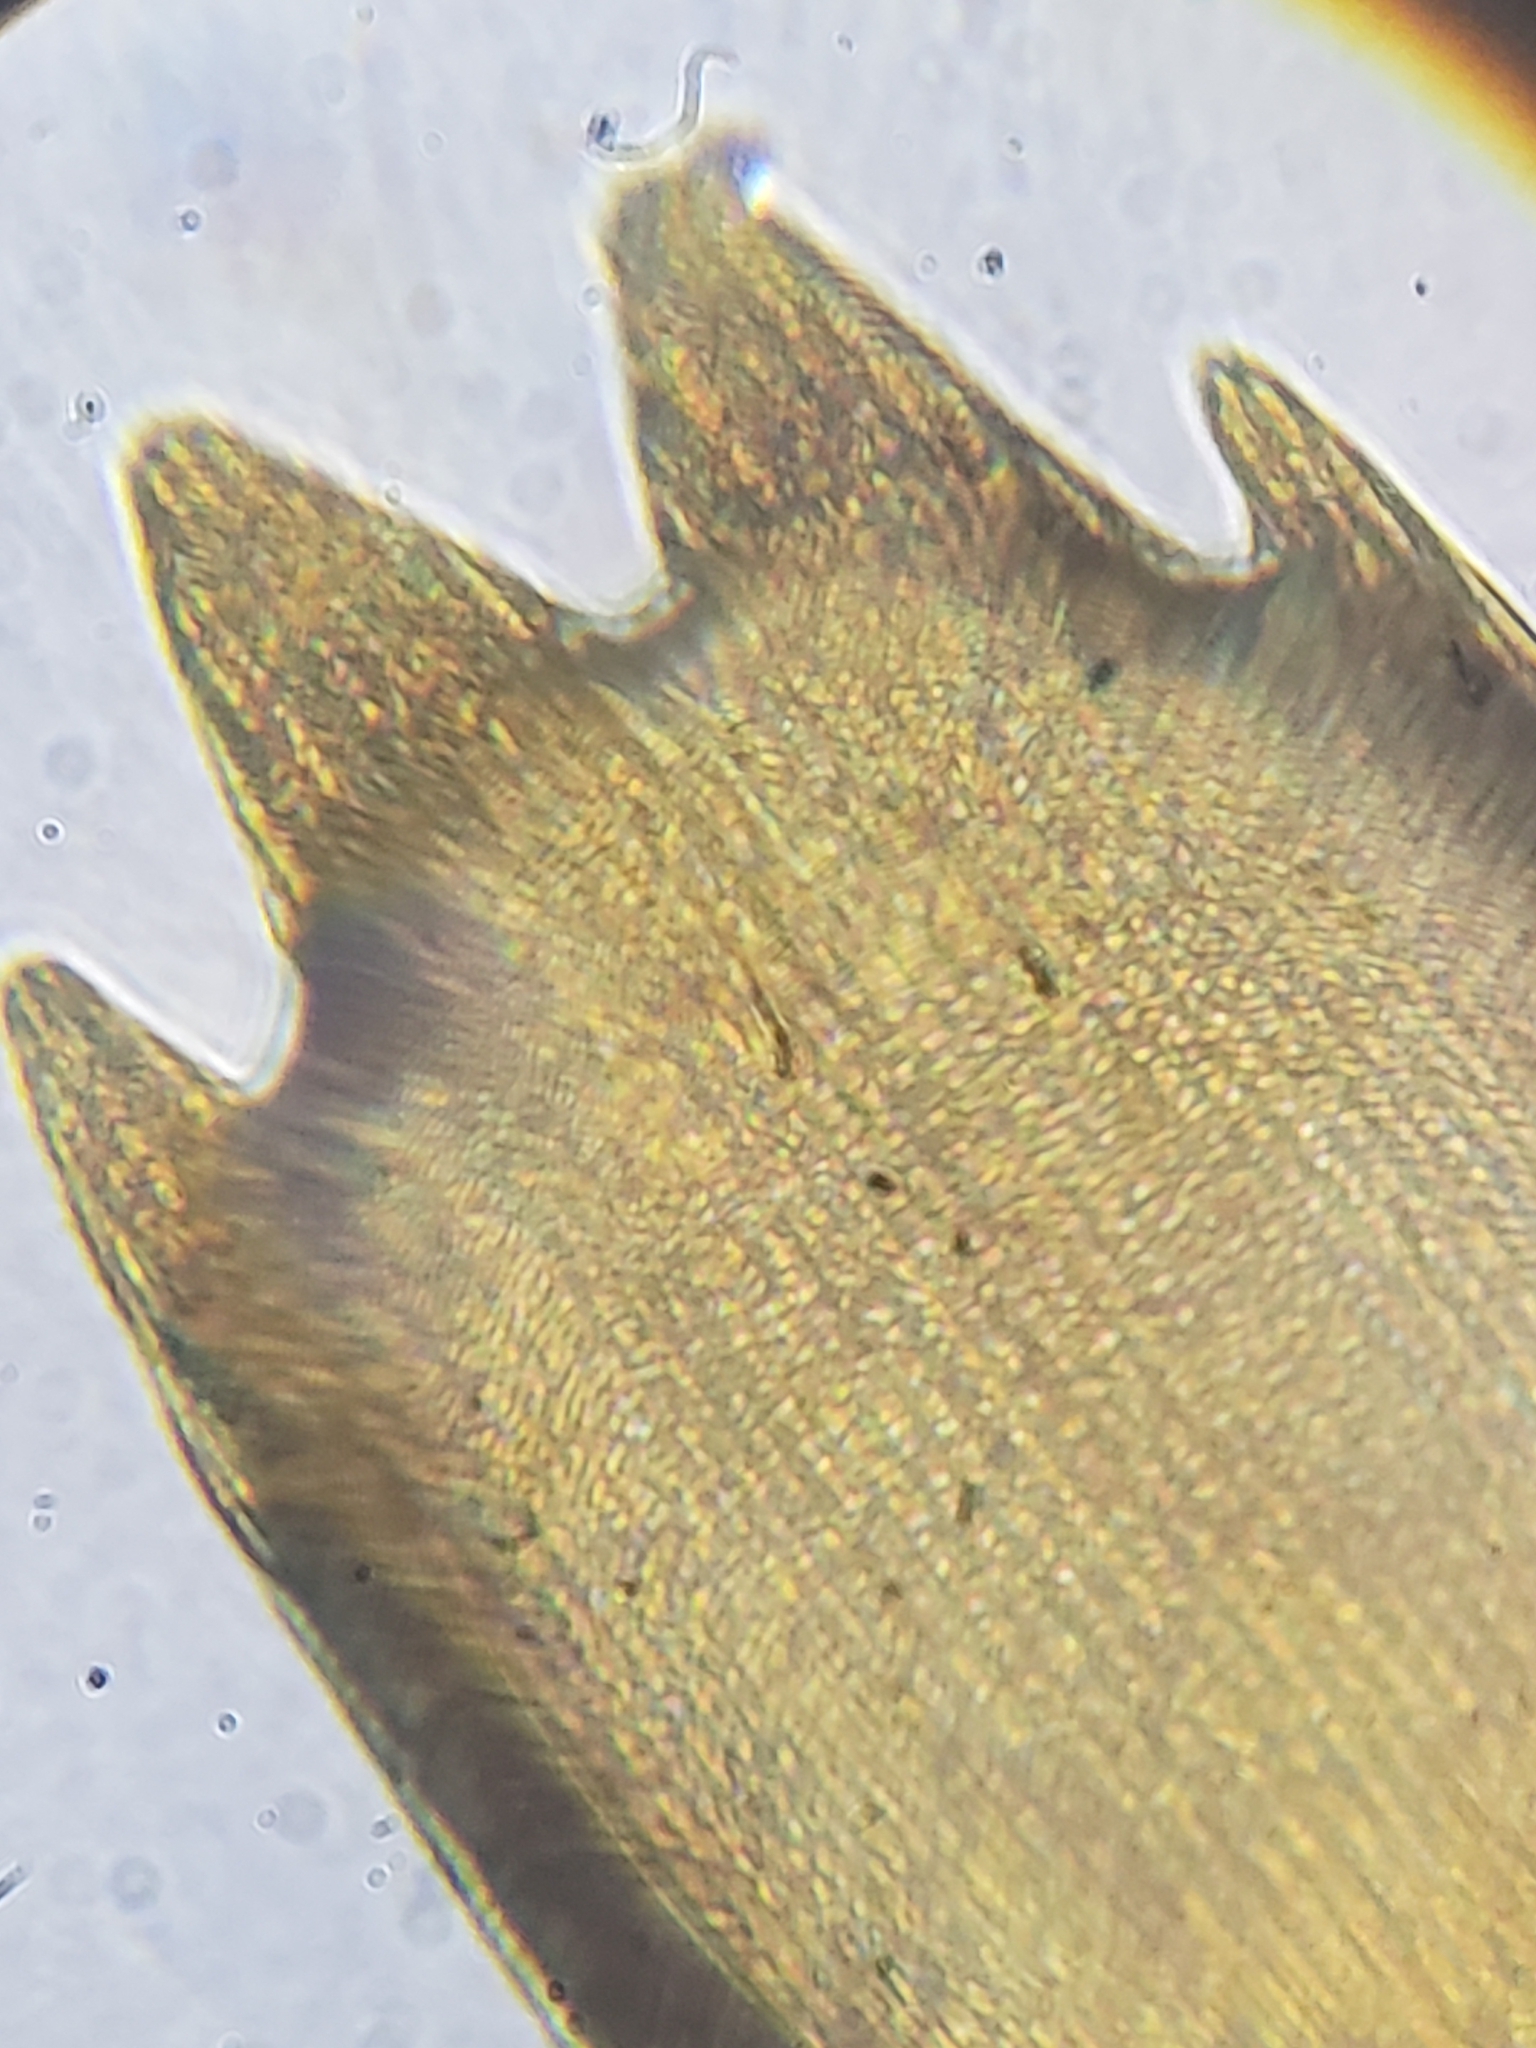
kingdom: Animalia
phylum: Arthropoda
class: Insecta
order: Lepidoptera
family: Papilionidae
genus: Papilio
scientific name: Papilio glaucus
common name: Tiger swallowtail
